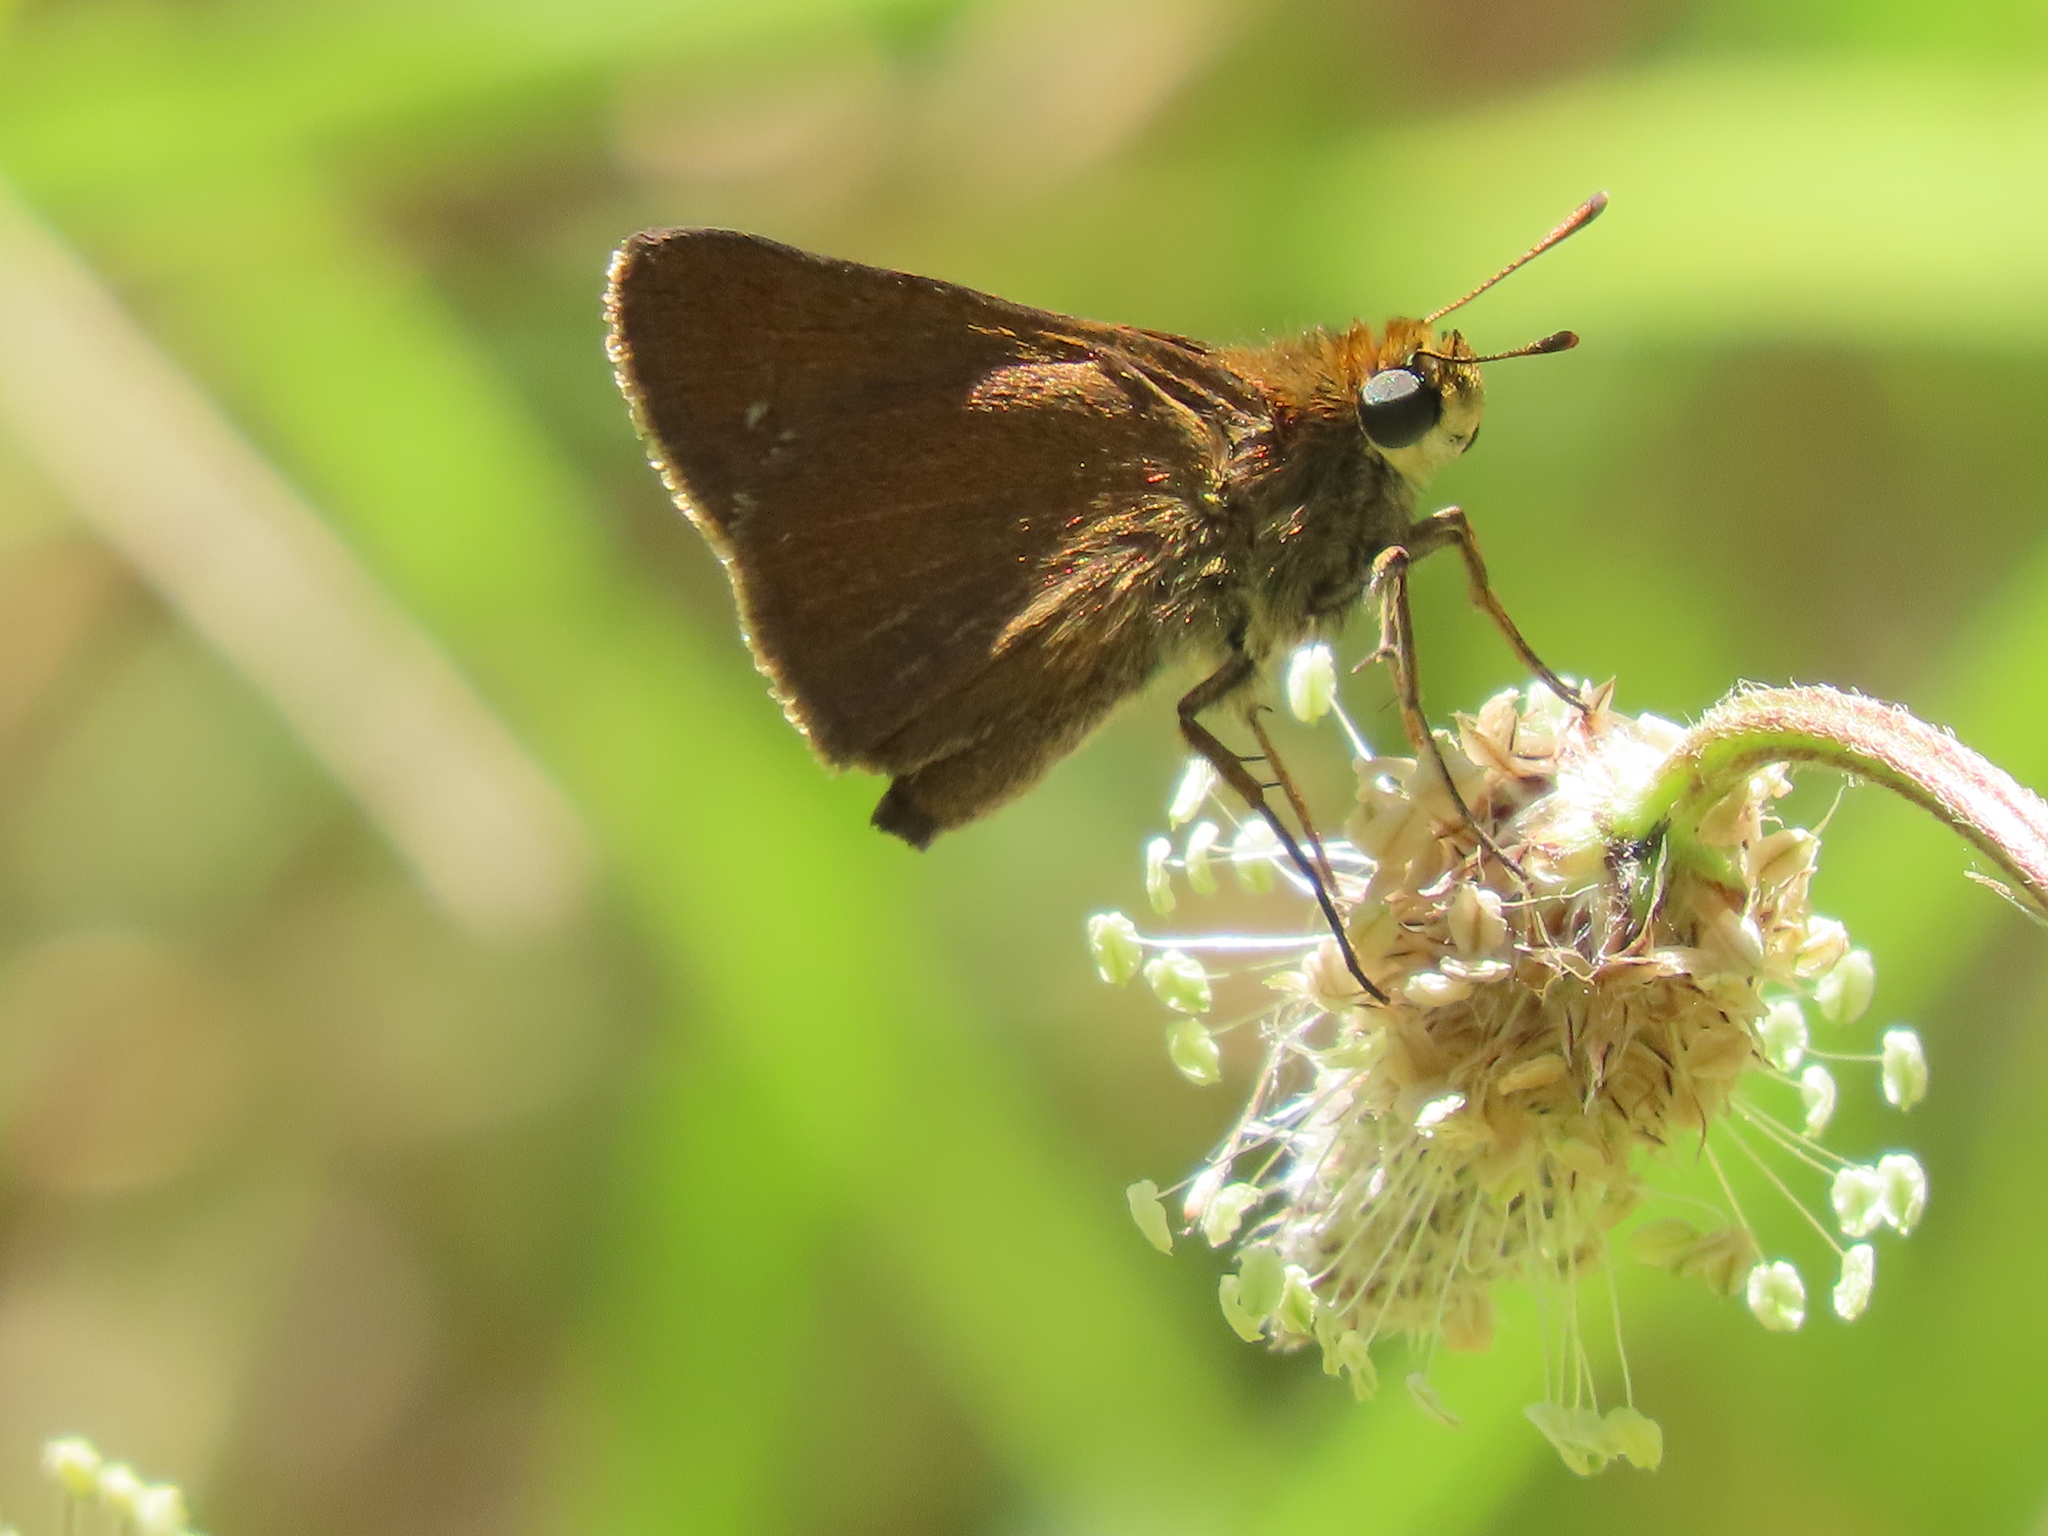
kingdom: Animalia
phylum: Arthropoda
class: Insecta
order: Lepidoptera
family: Hesperiidae
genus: Euphyes
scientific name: Euphyes vestris
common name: Dun skipper
